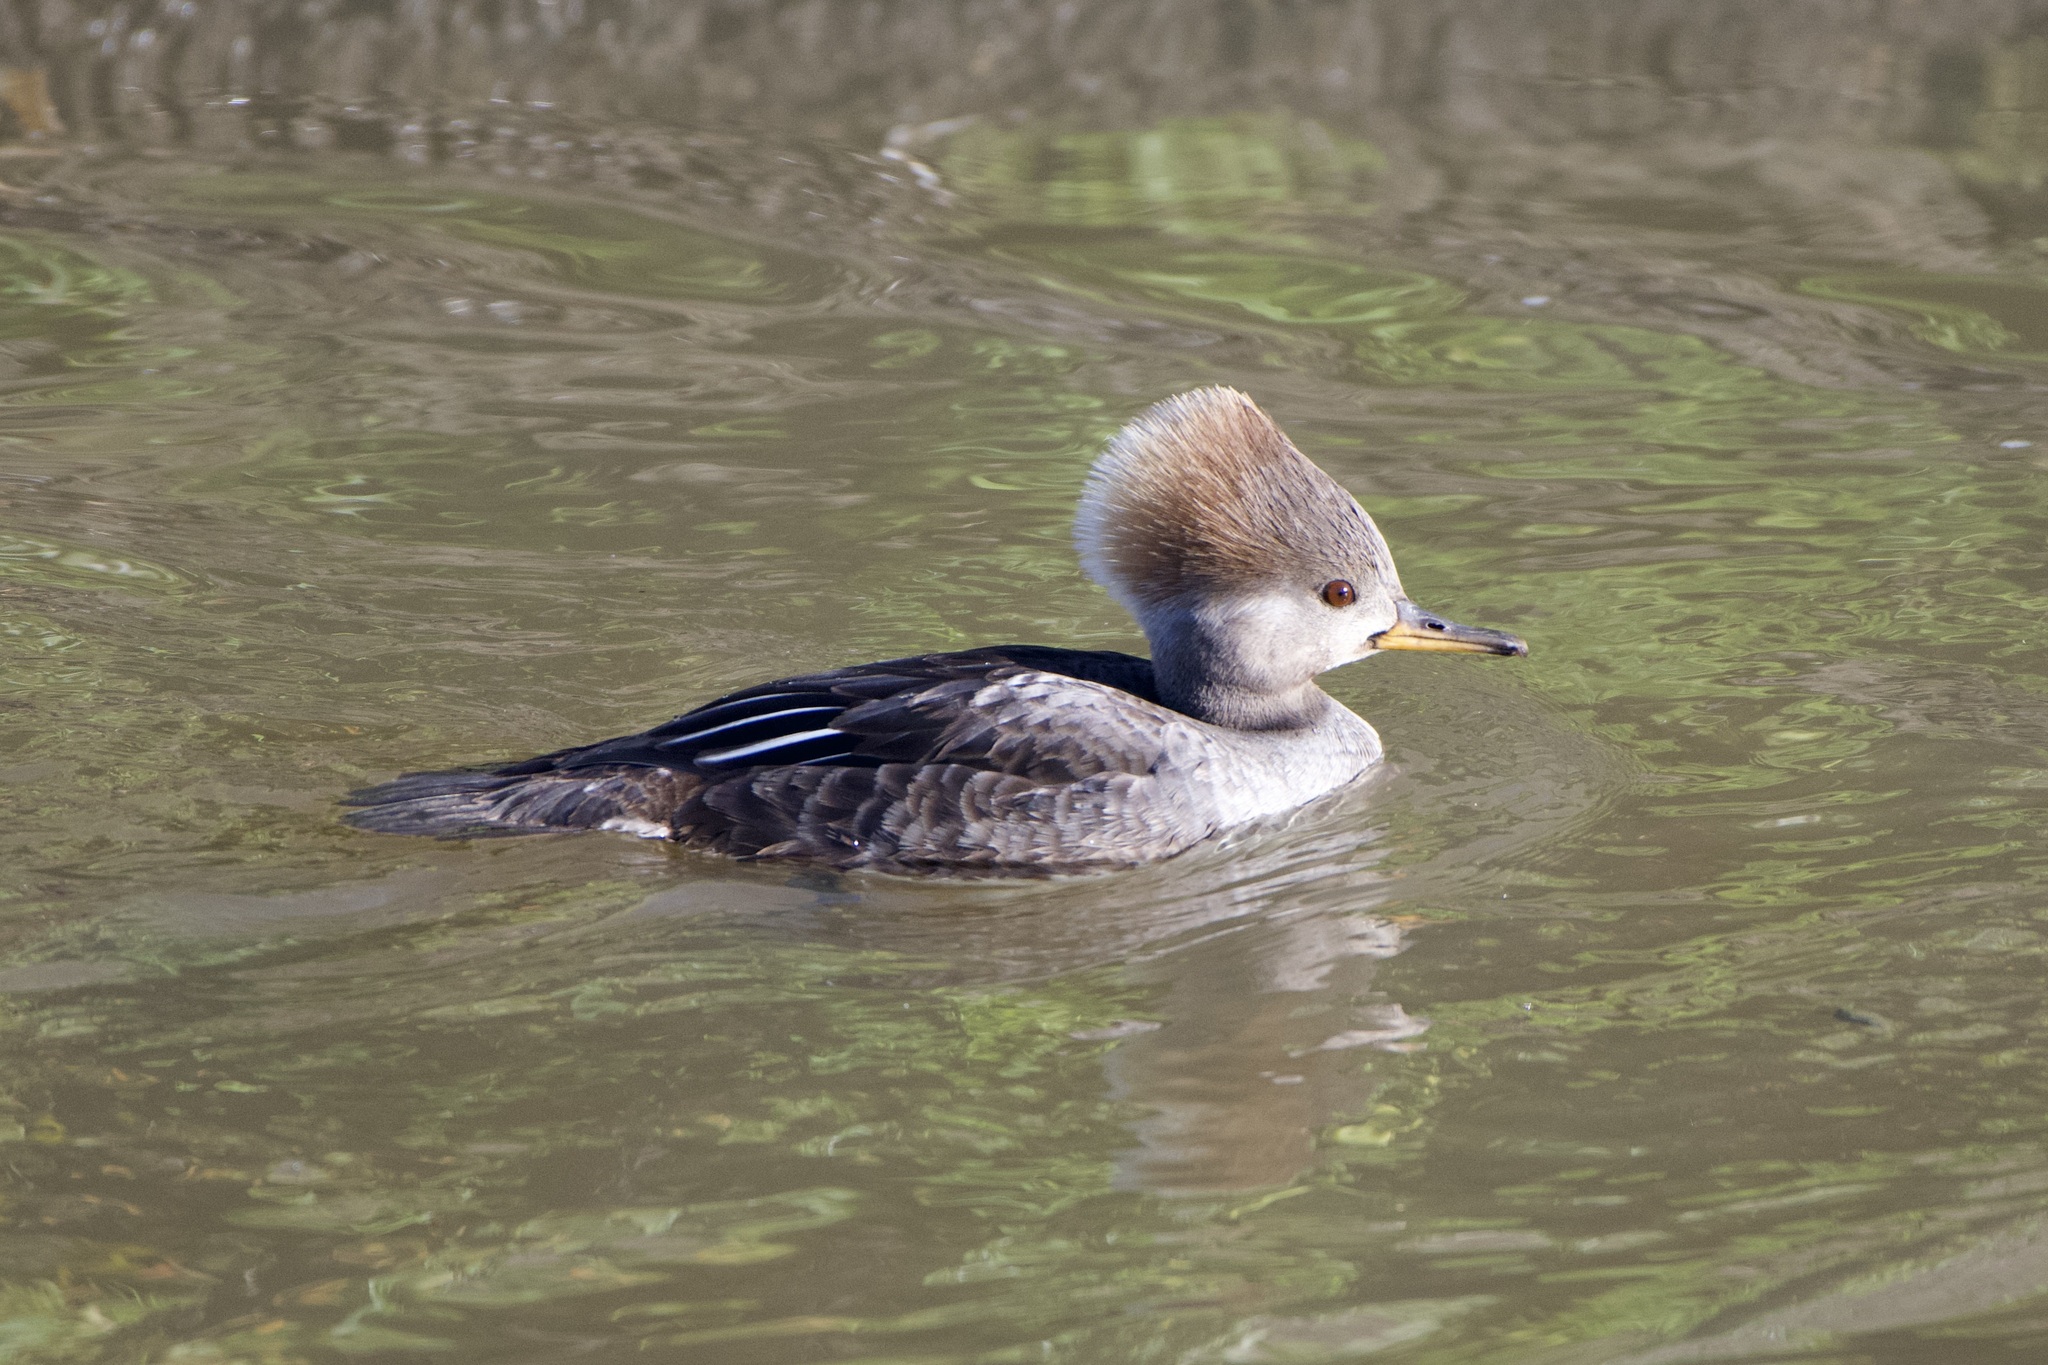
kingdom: Animalia
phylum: Chordata
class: Aves
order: Anseriformes
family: Anatidae
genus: Lophodytes
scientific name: Lophodytes cucullatus
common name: Hooded merganser
